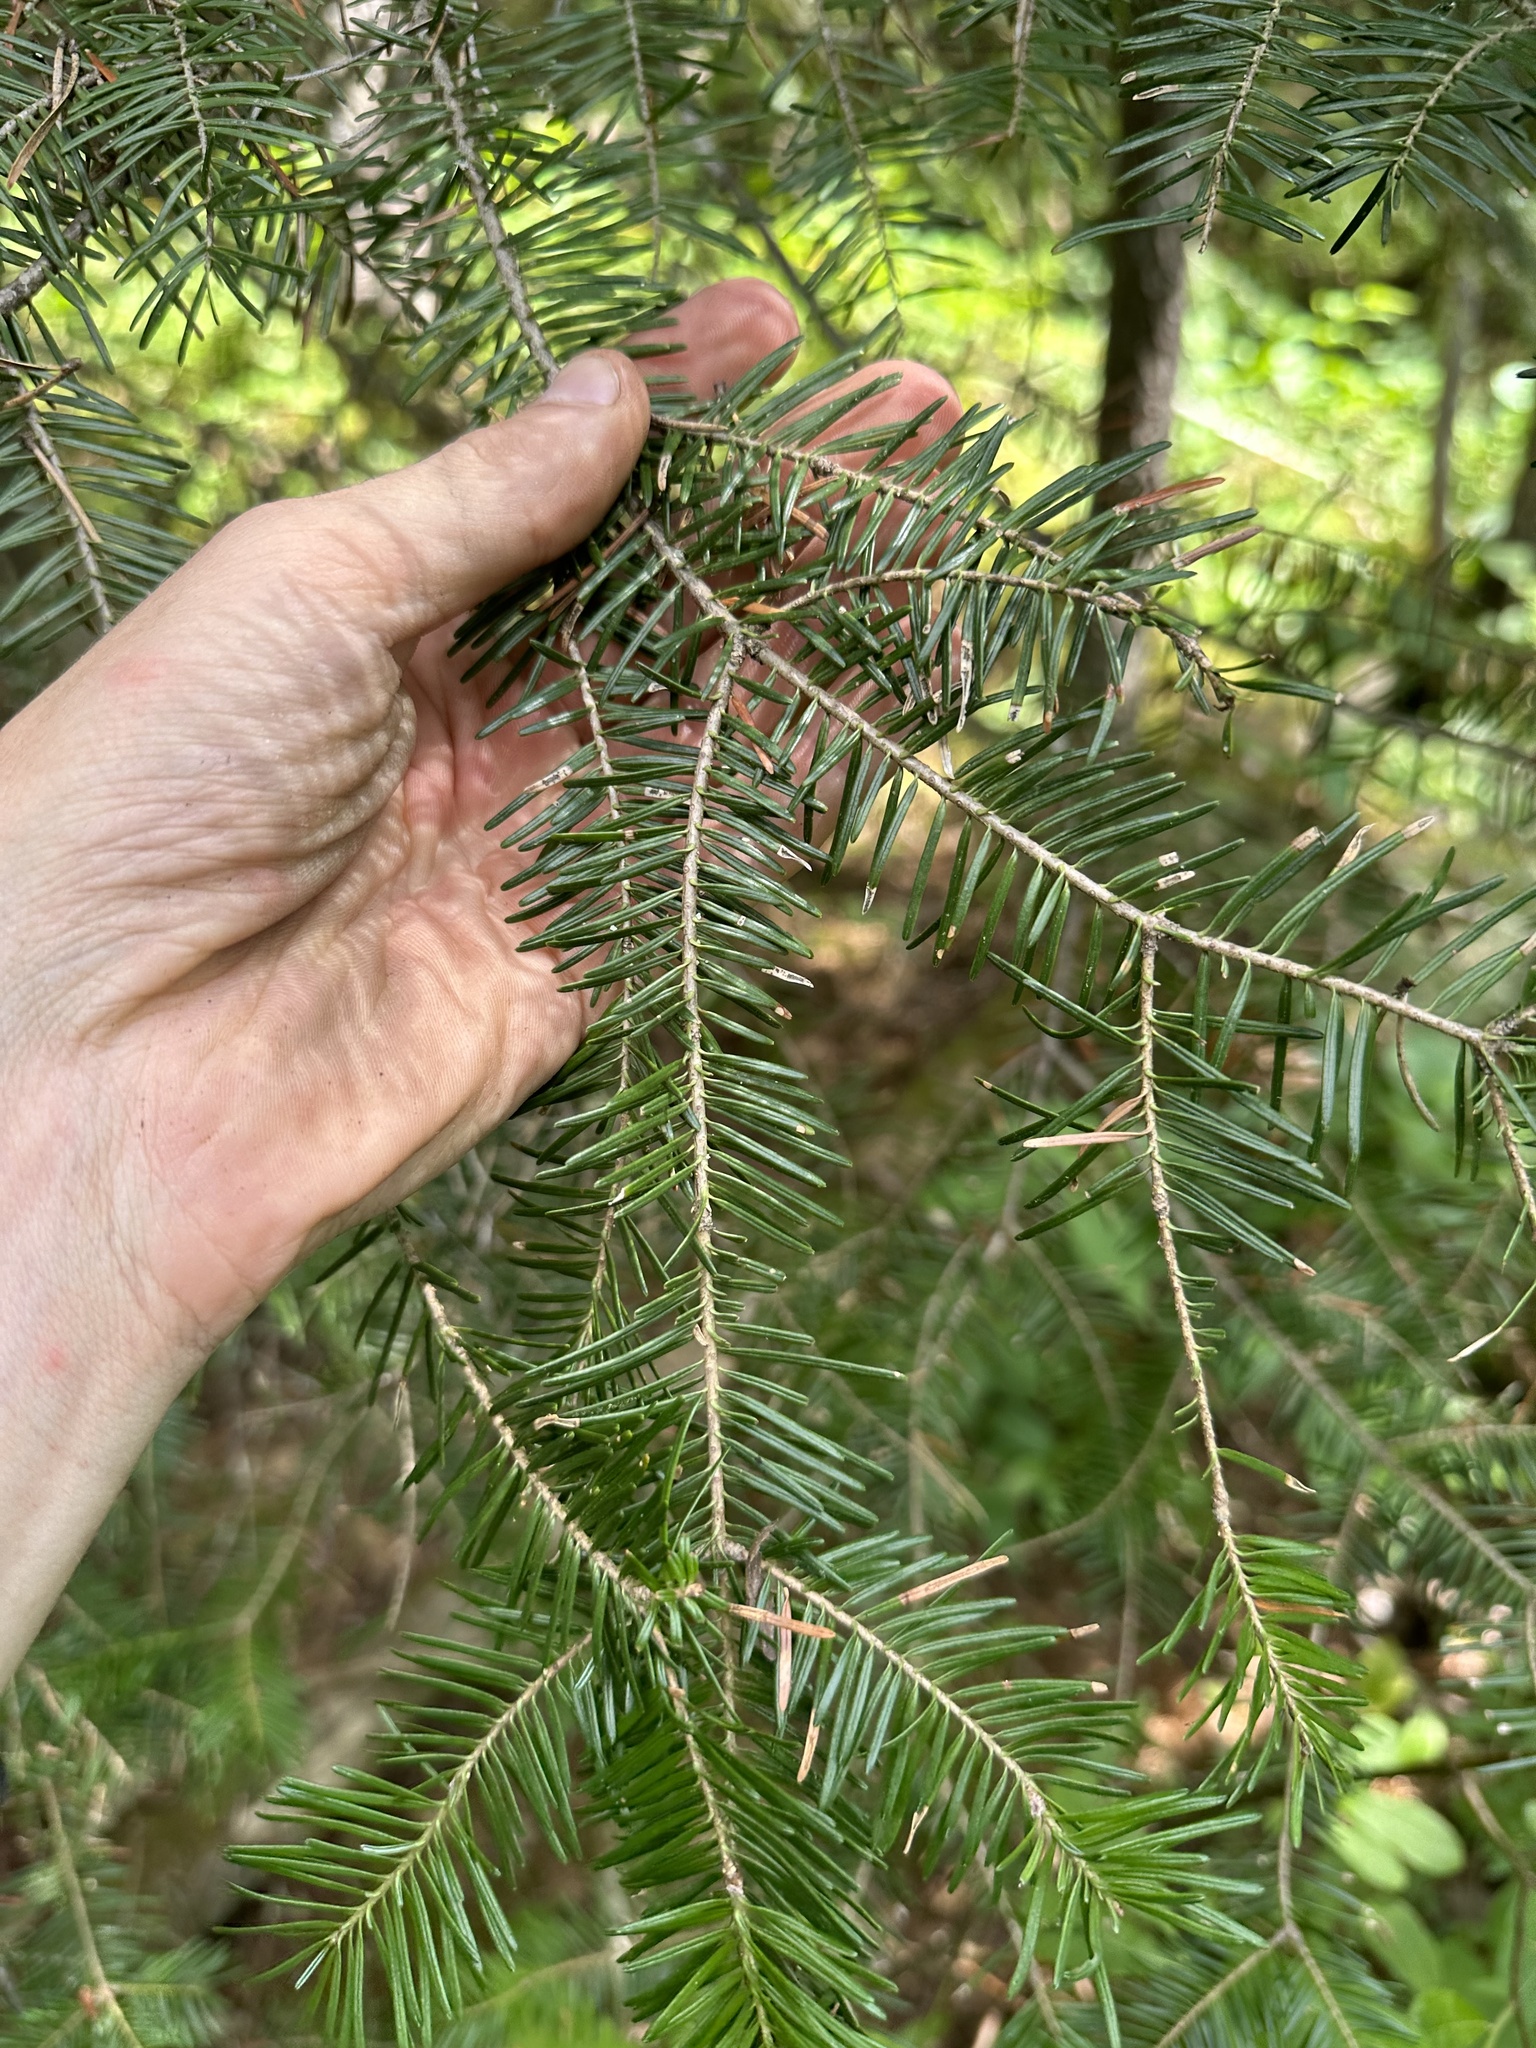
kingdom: Plantae
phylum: Tracheophyta
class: Pinopsida
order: Pinales
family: Pinaceae
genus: Abies
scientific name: Abies balsamea
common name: Balsam fir
